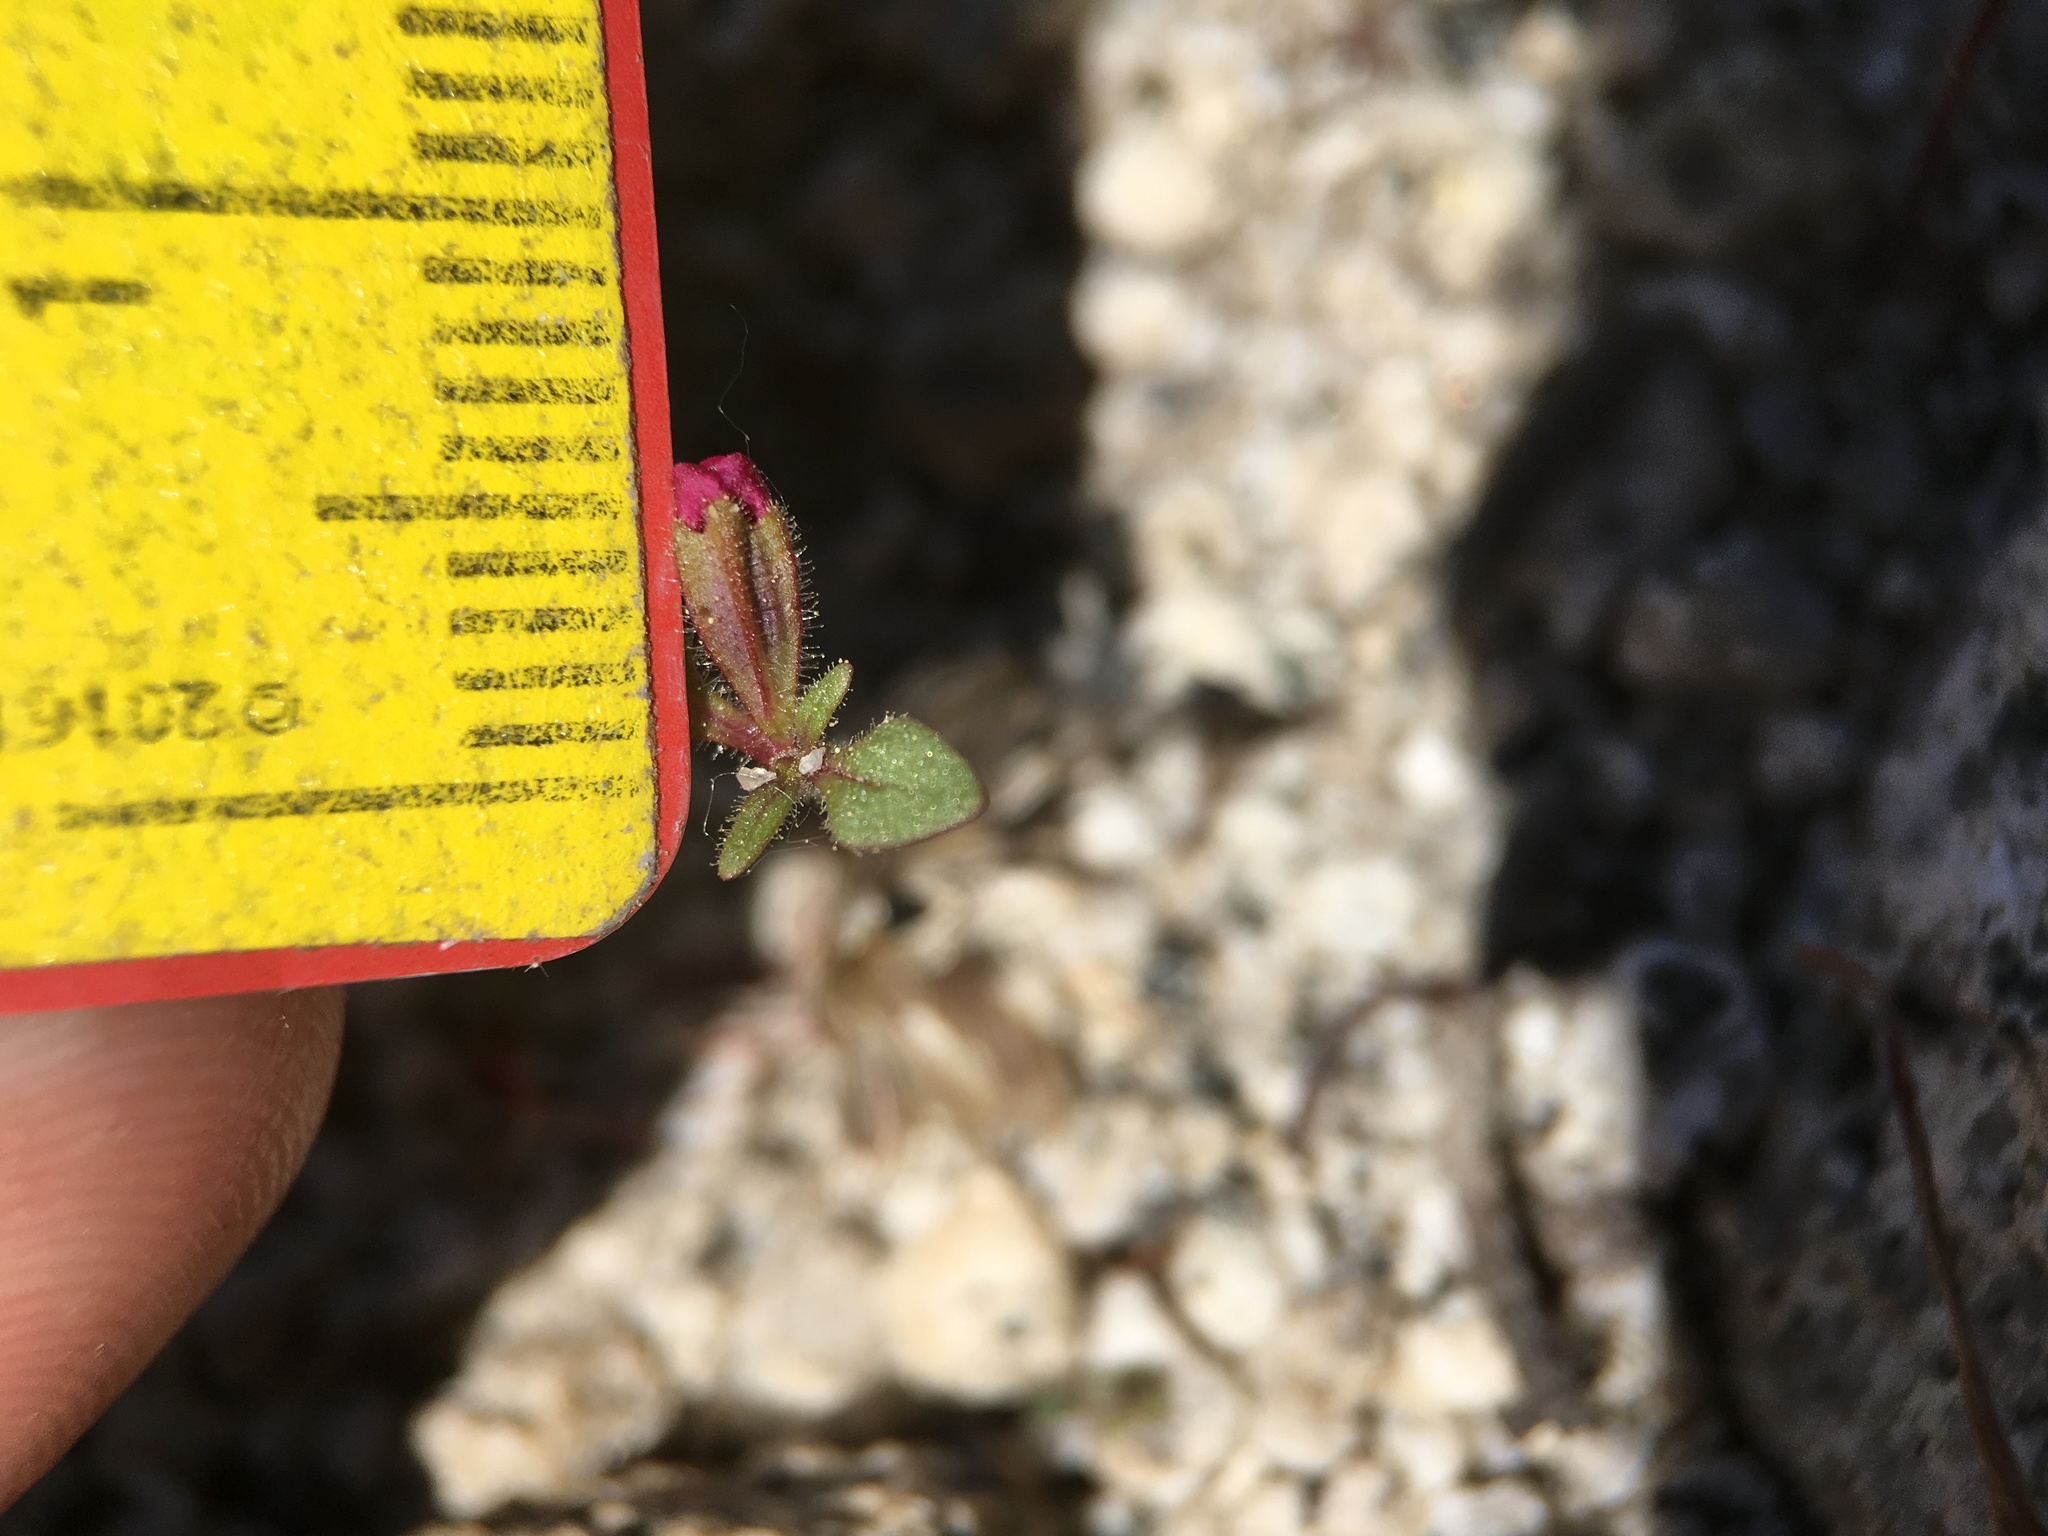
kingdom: Plantae
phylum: Tracheophyta
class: Magnoliopsida
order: Lamiales
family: Phrymaceae
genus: Diplacus
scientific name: Diplacus leptaleus
